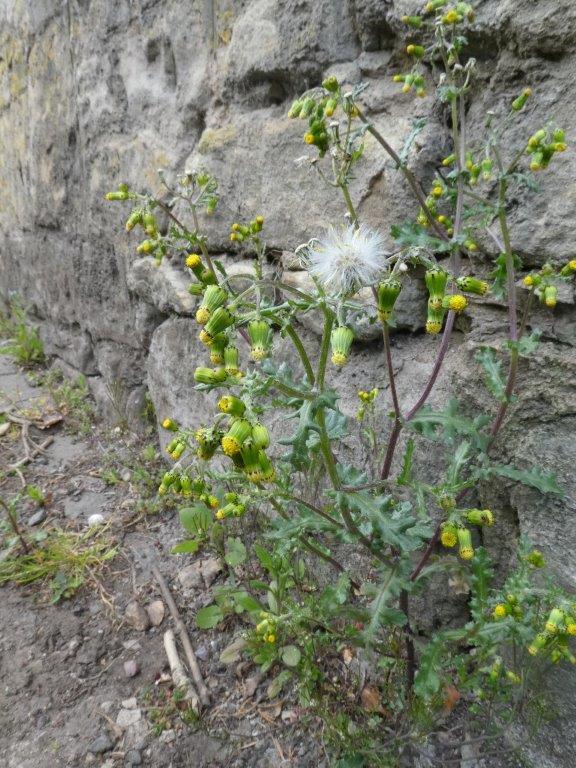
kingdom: Plantae
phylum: Tracheophyta
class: Magnoliopsida
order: Asterales
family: Asteraceae
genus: Senecio
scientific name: Senecio vulgaris
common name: Old-man-in-the-spring
